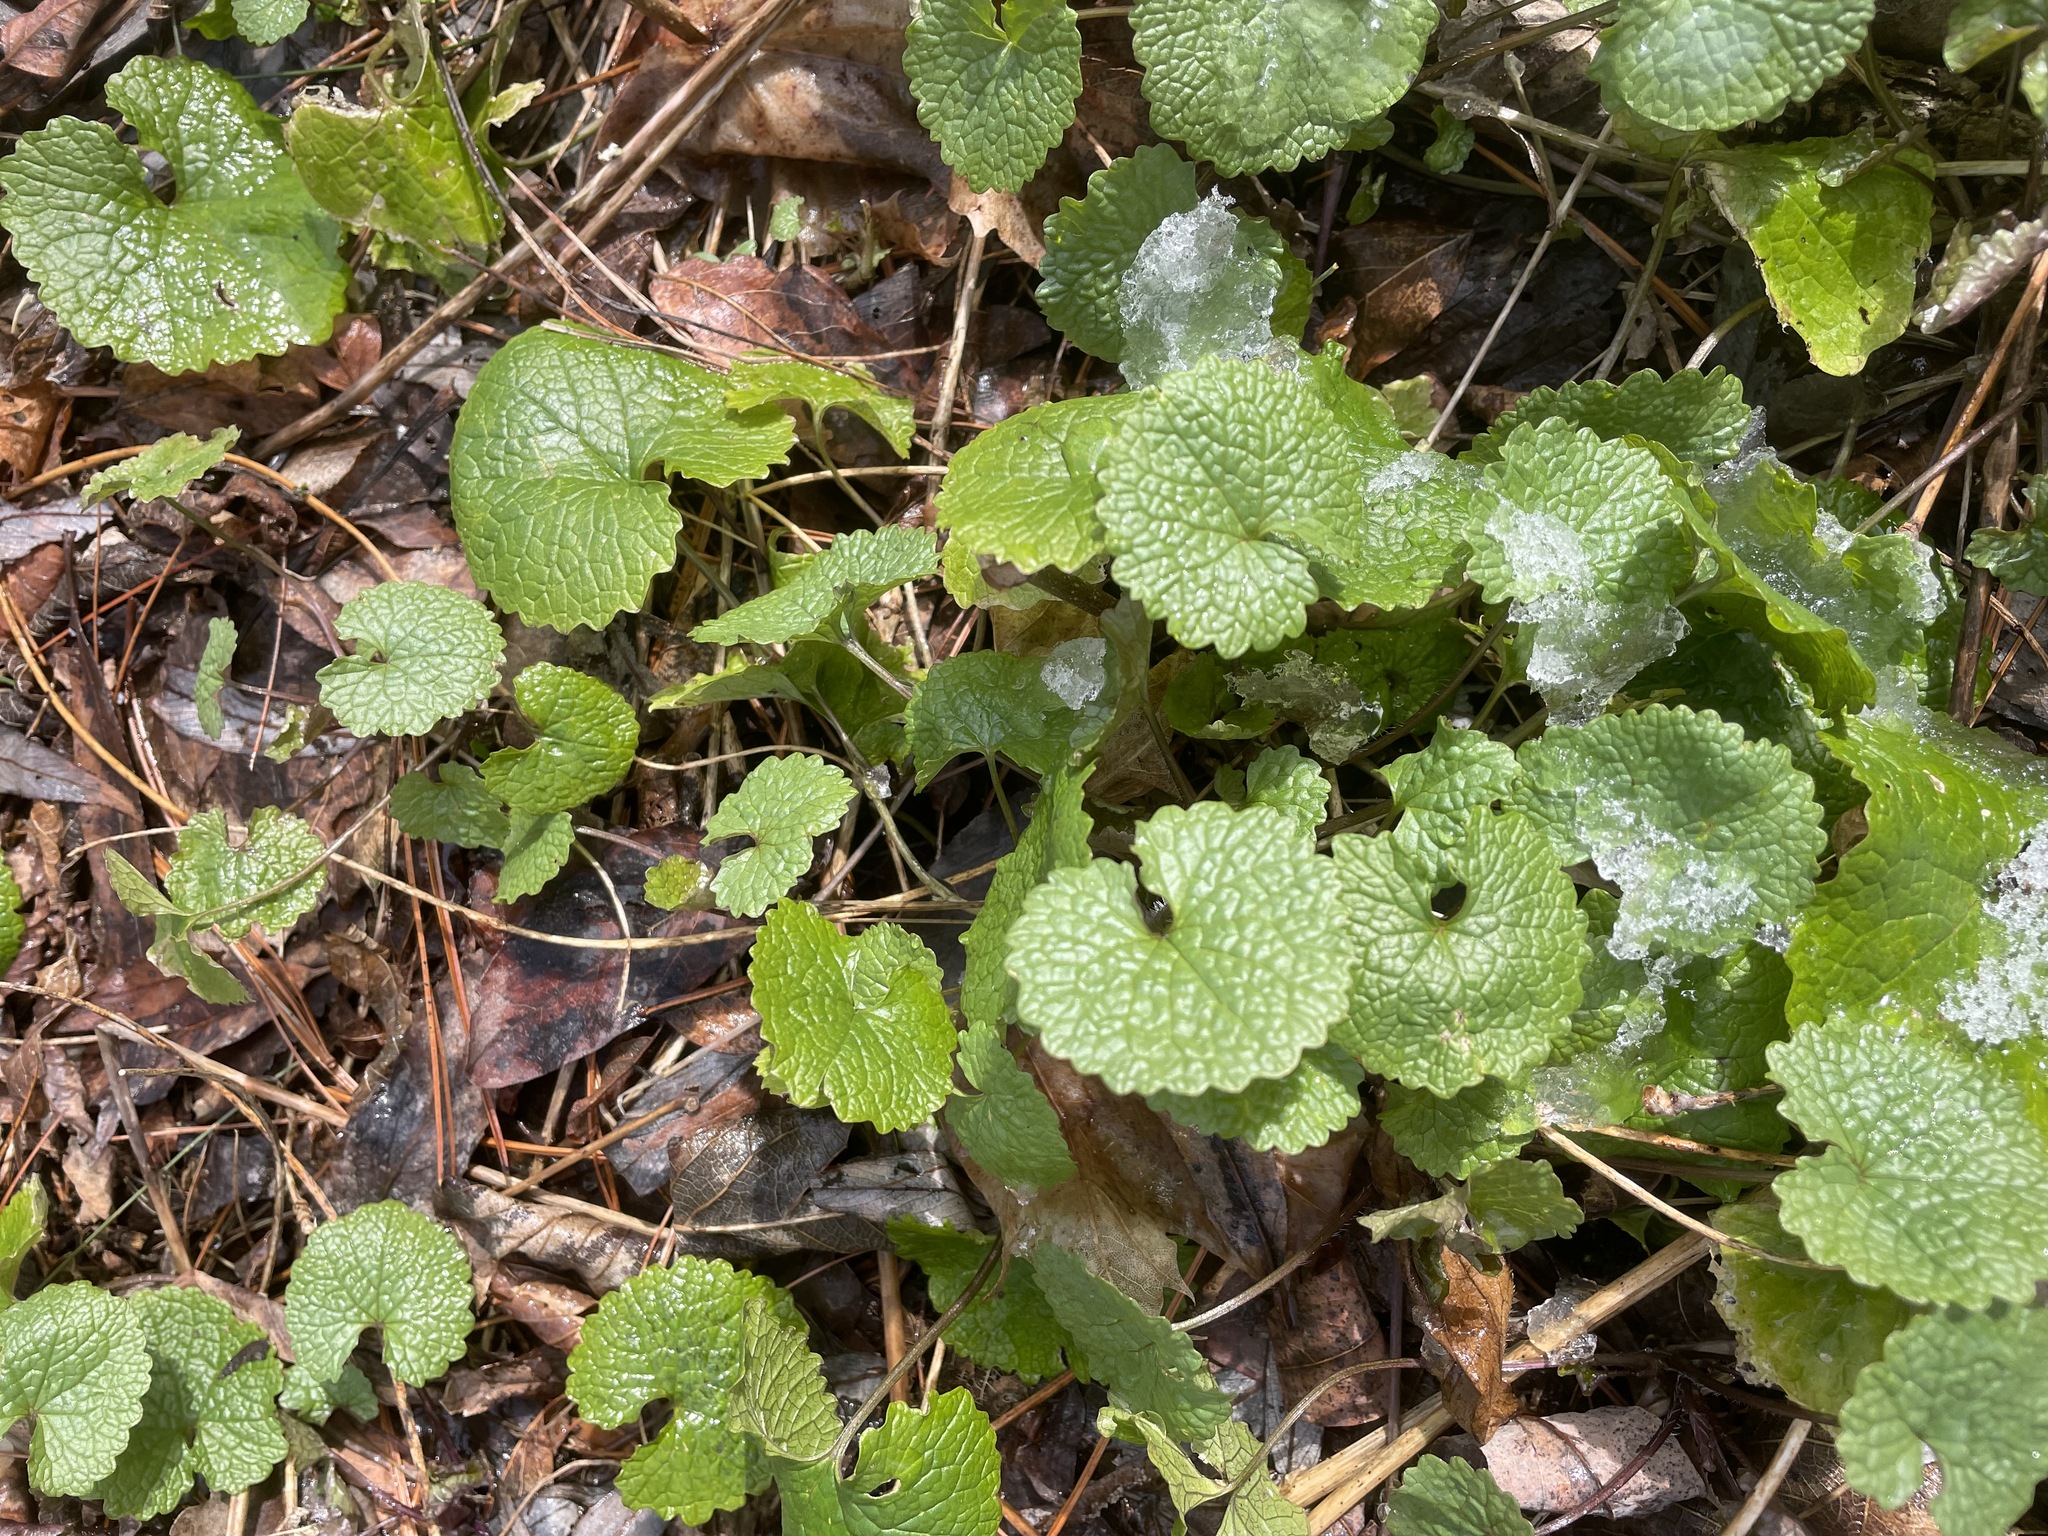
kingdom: Plantae
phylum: Tracheophyta
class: Magnoliopsida
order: Brassicales
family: Brassicaceae
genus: Alliaria
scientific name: Alliaria petiolata
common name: Garlic mustard
